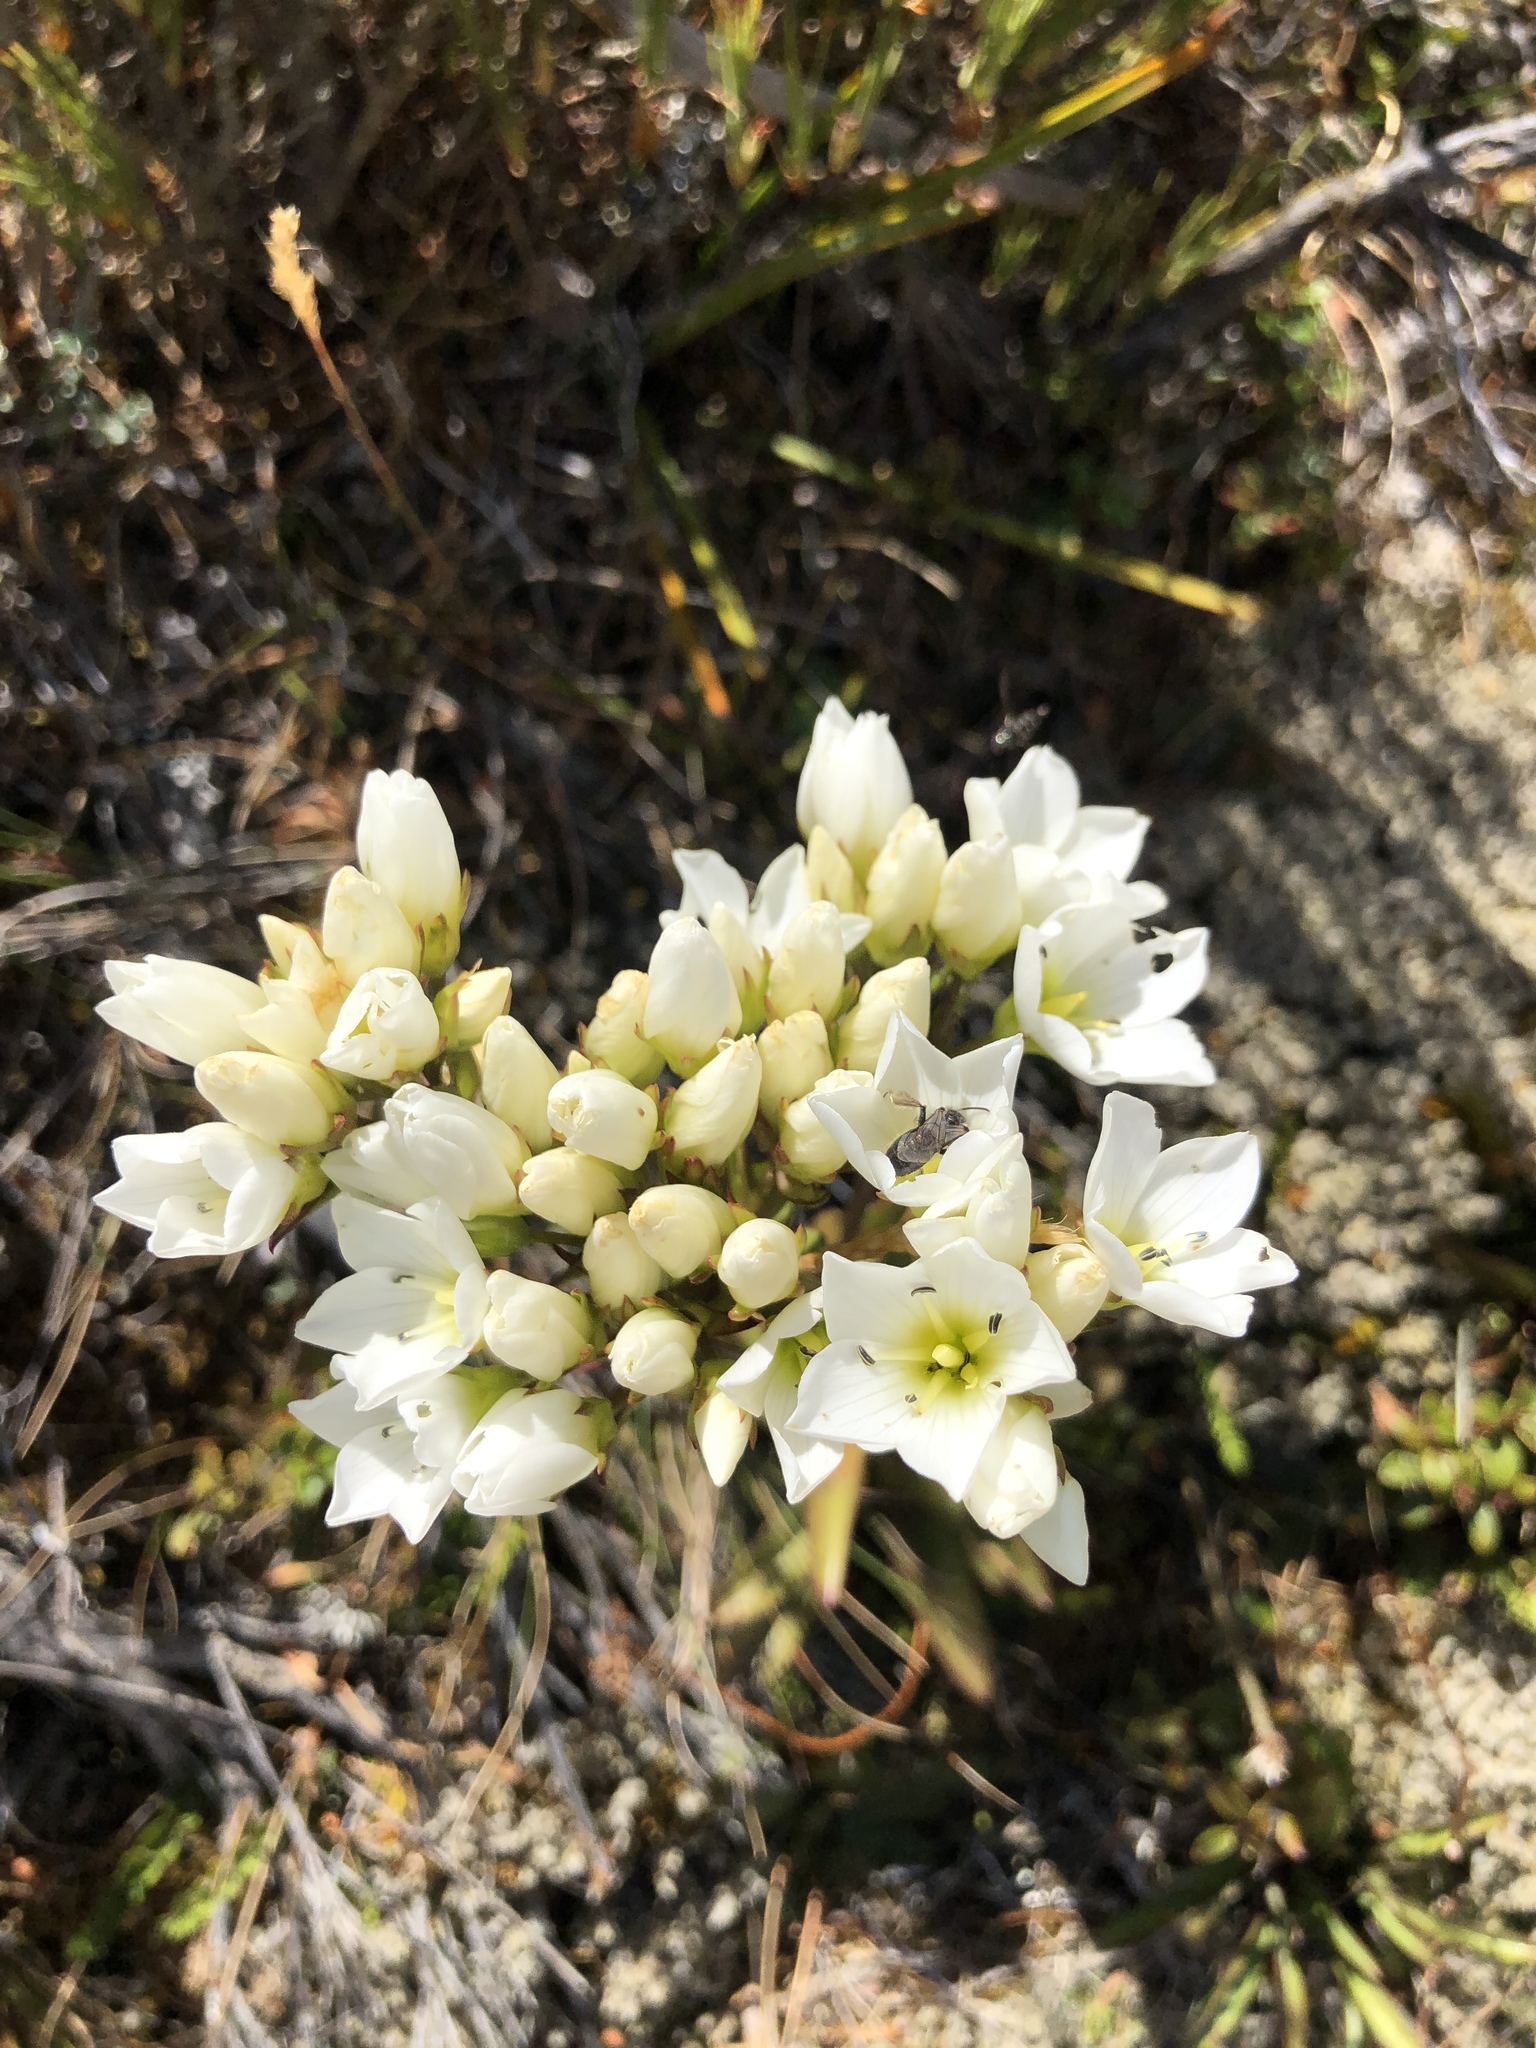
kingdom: Plantae
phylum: Tracheophyta
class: Magnoliopsida
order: Gentianales
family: Gentianaceae
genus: Gentianella
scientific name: Gentianella corymbifera
